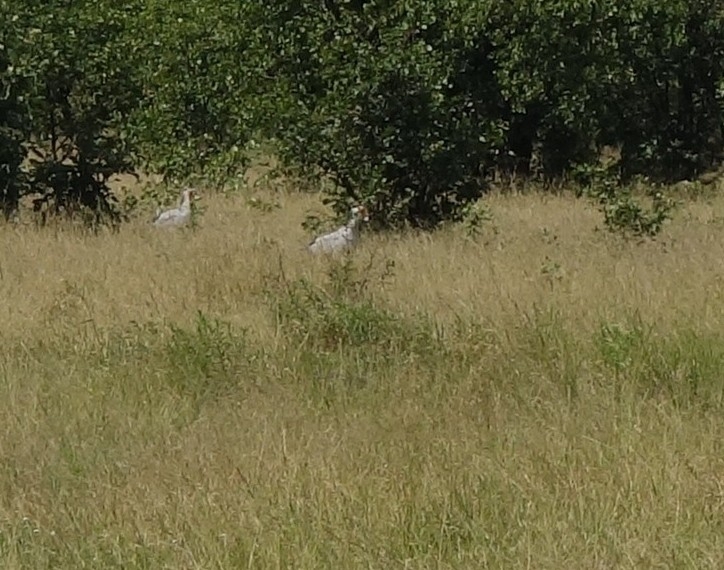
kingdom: Animalia
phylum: Chordata
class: Aves
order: Accipitriformes
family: Sagittariidae
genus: Sagittarius
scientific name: Sagittarius serpentarius
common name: Secretarybird
